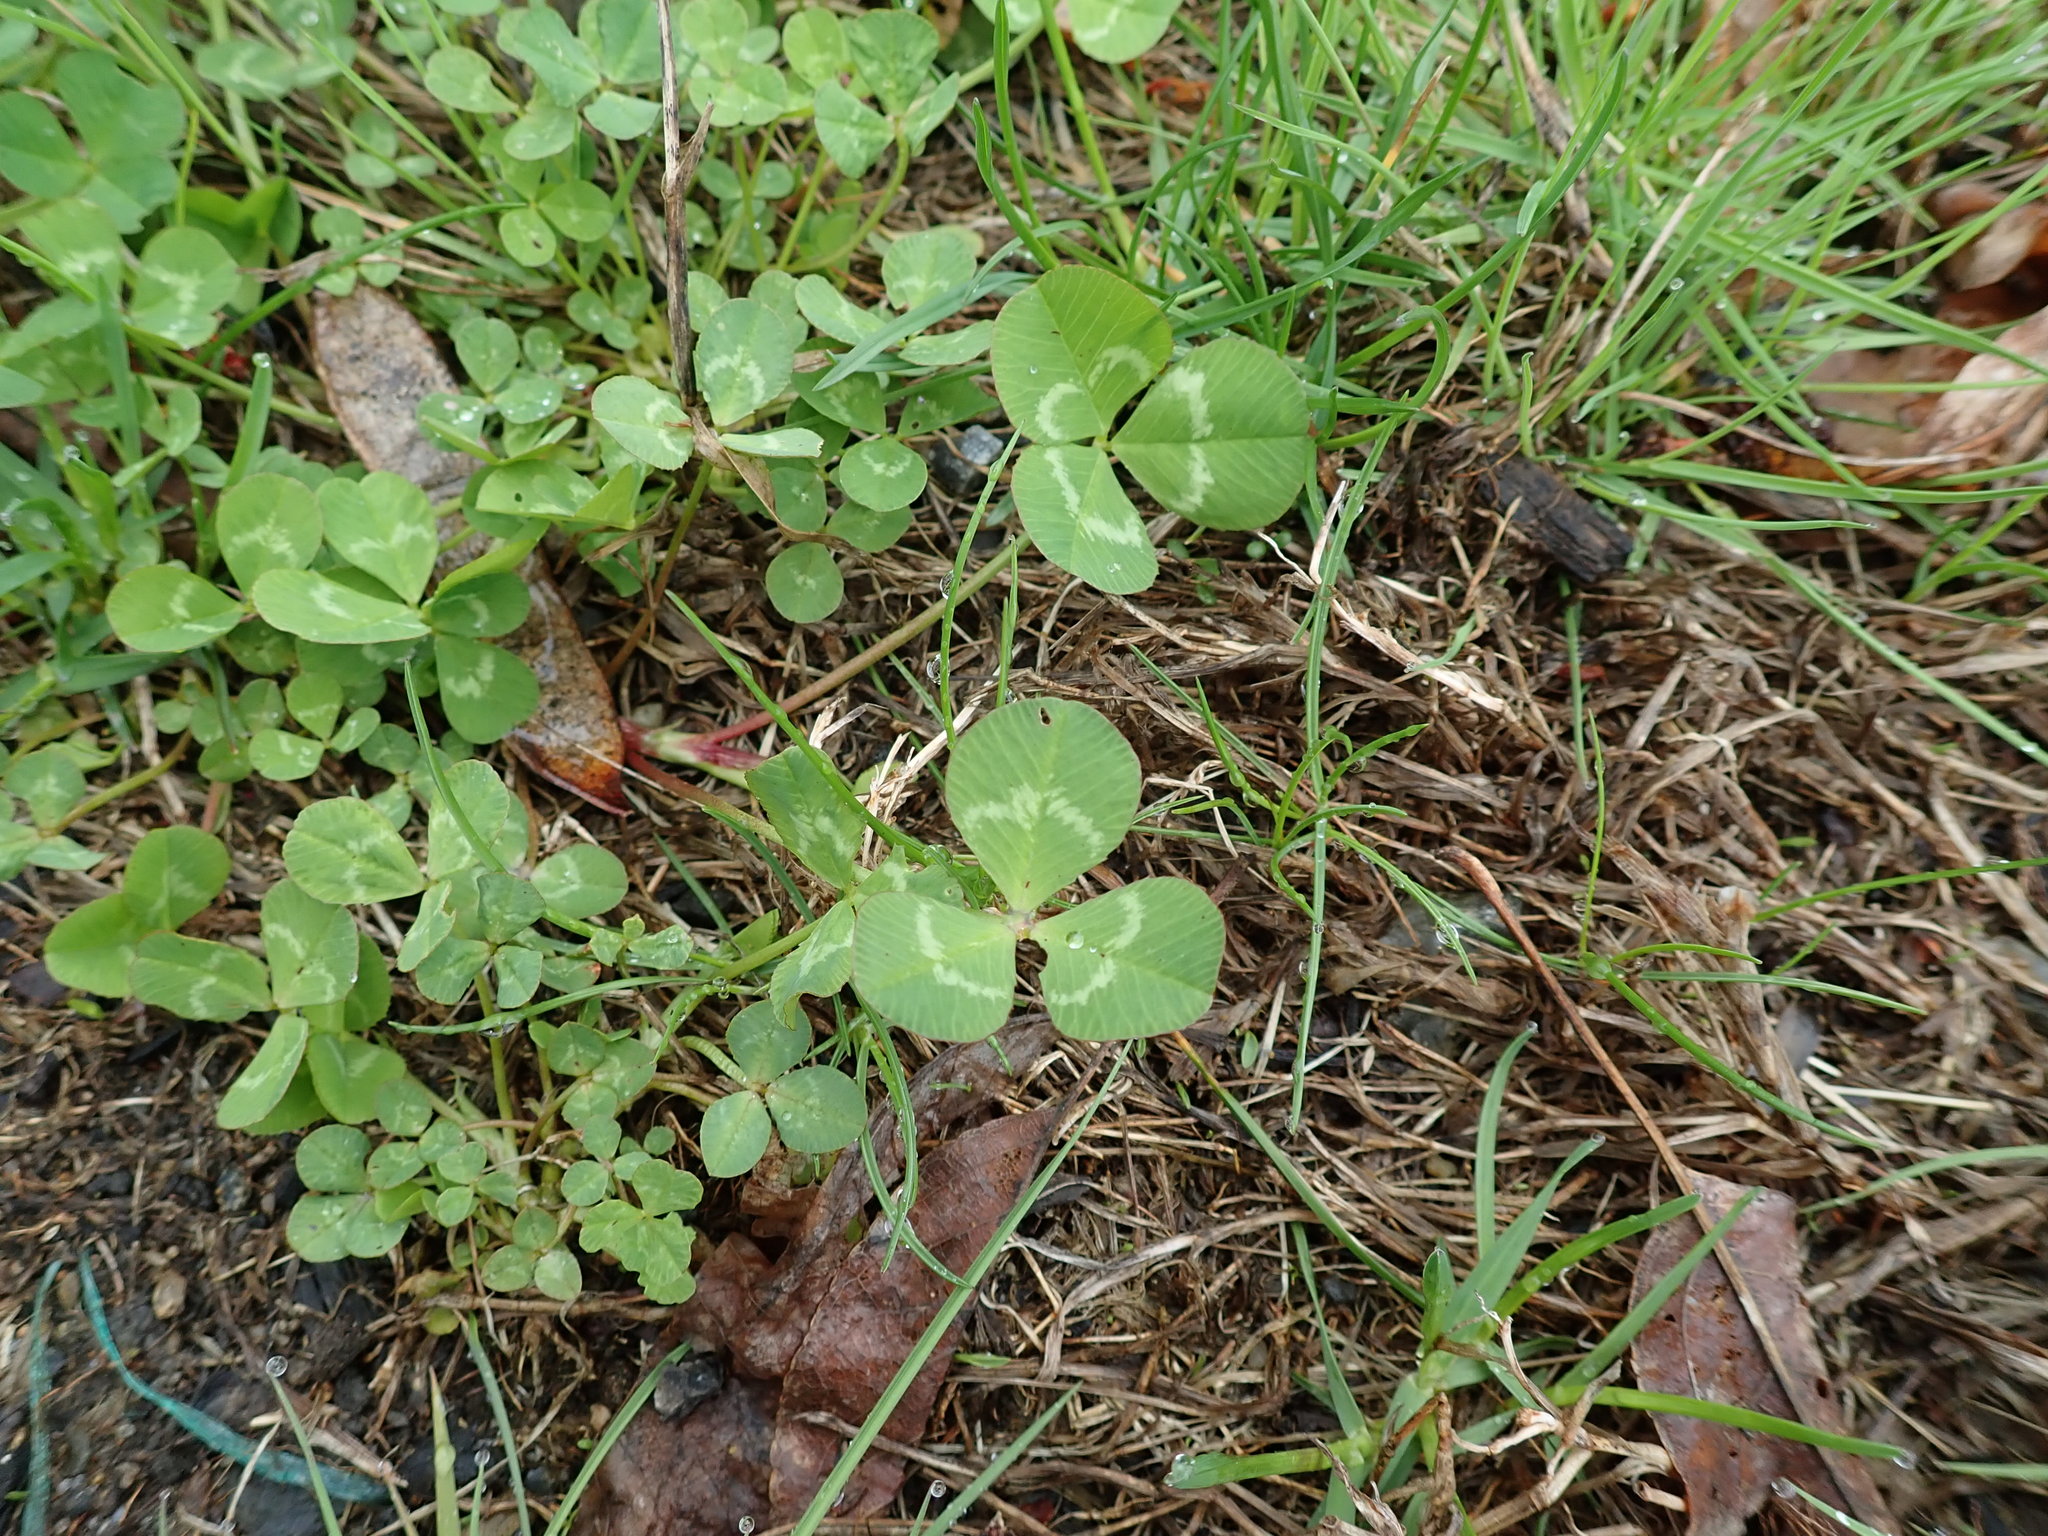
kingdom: Plantae
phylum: Tracheophyta
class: Magnoliopsida
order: Fabales
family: Fabaceae
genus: Trifolium
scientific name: Trifolium repens
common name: White clover
